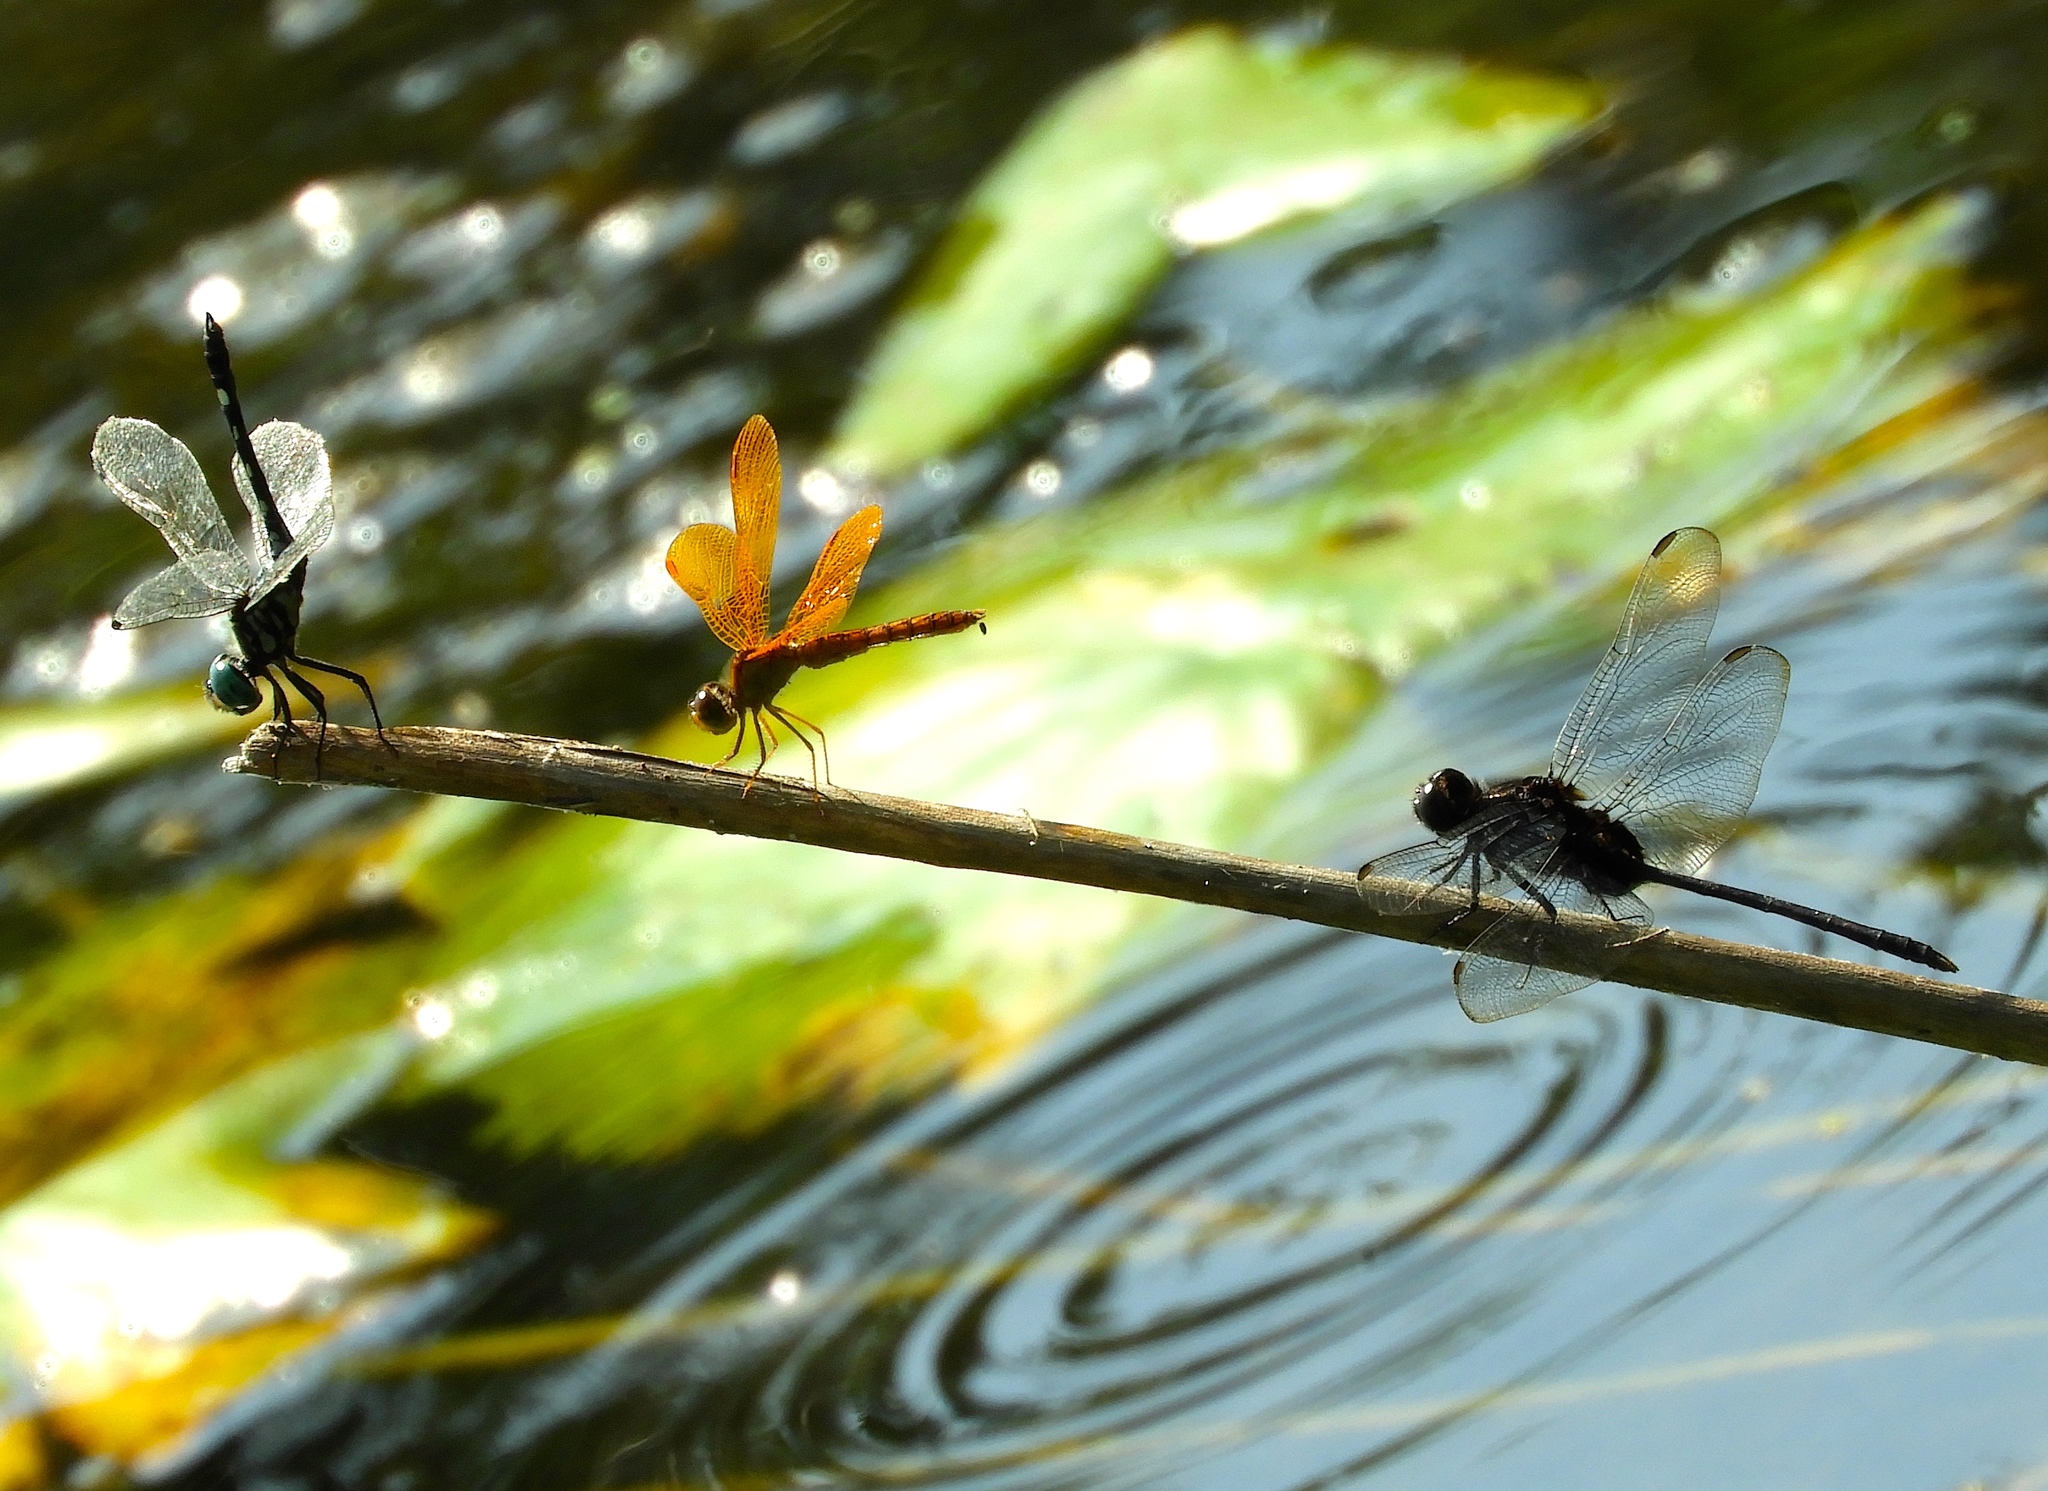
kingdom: Animalia
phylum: Arthropoda
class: Insecta
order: Odonata
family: Libellulidae
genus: Erythemis
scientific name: Erythemis plebeja
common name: Pin-tailed pondhawk
